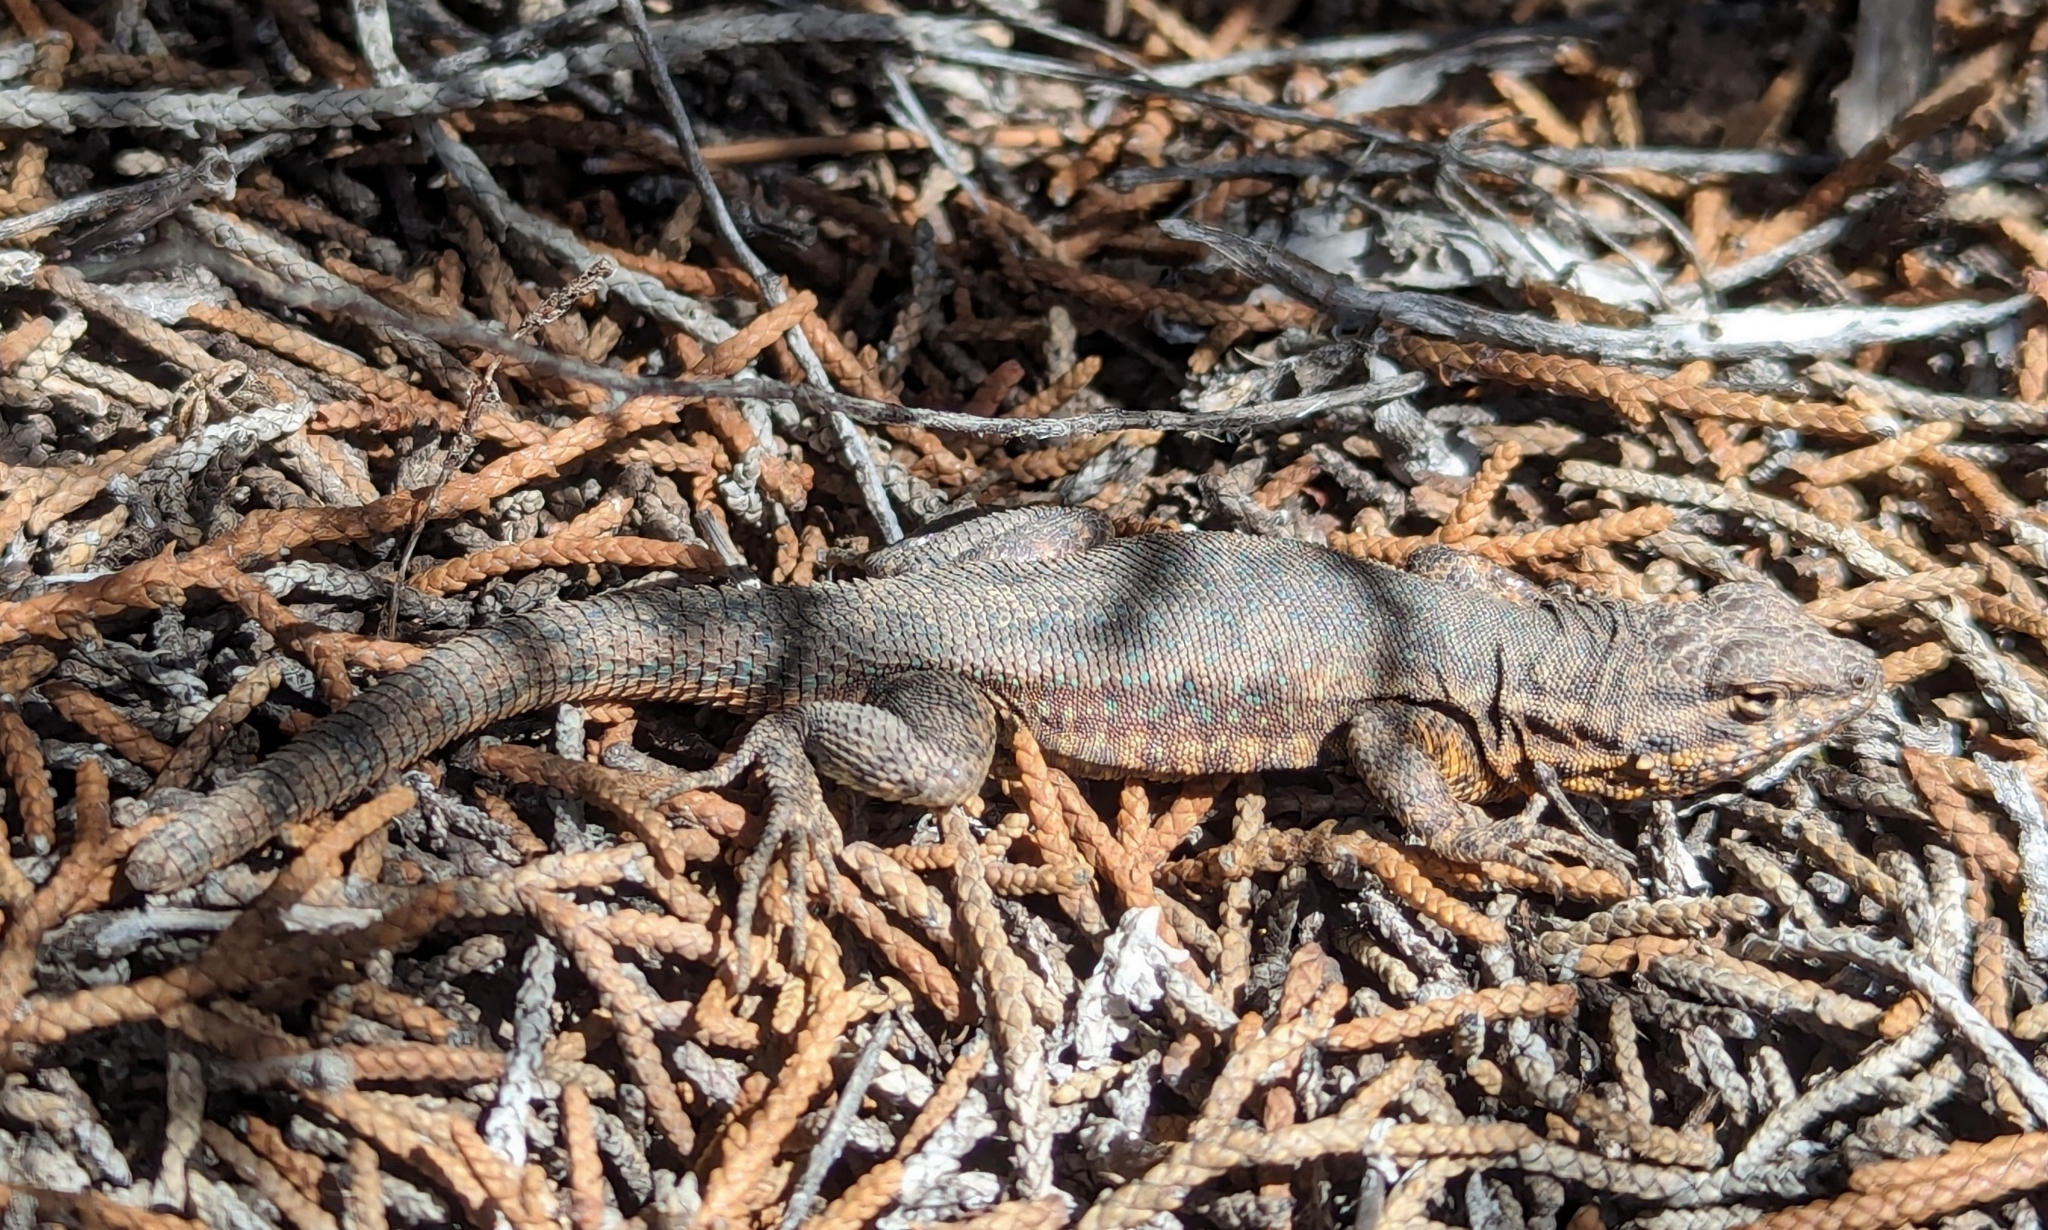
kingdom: Animalia
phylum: Chordata
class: Squamata
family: Phrynosomatidae
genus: Uta
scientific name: Uta stansburiana
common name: Side-blotched lizard
